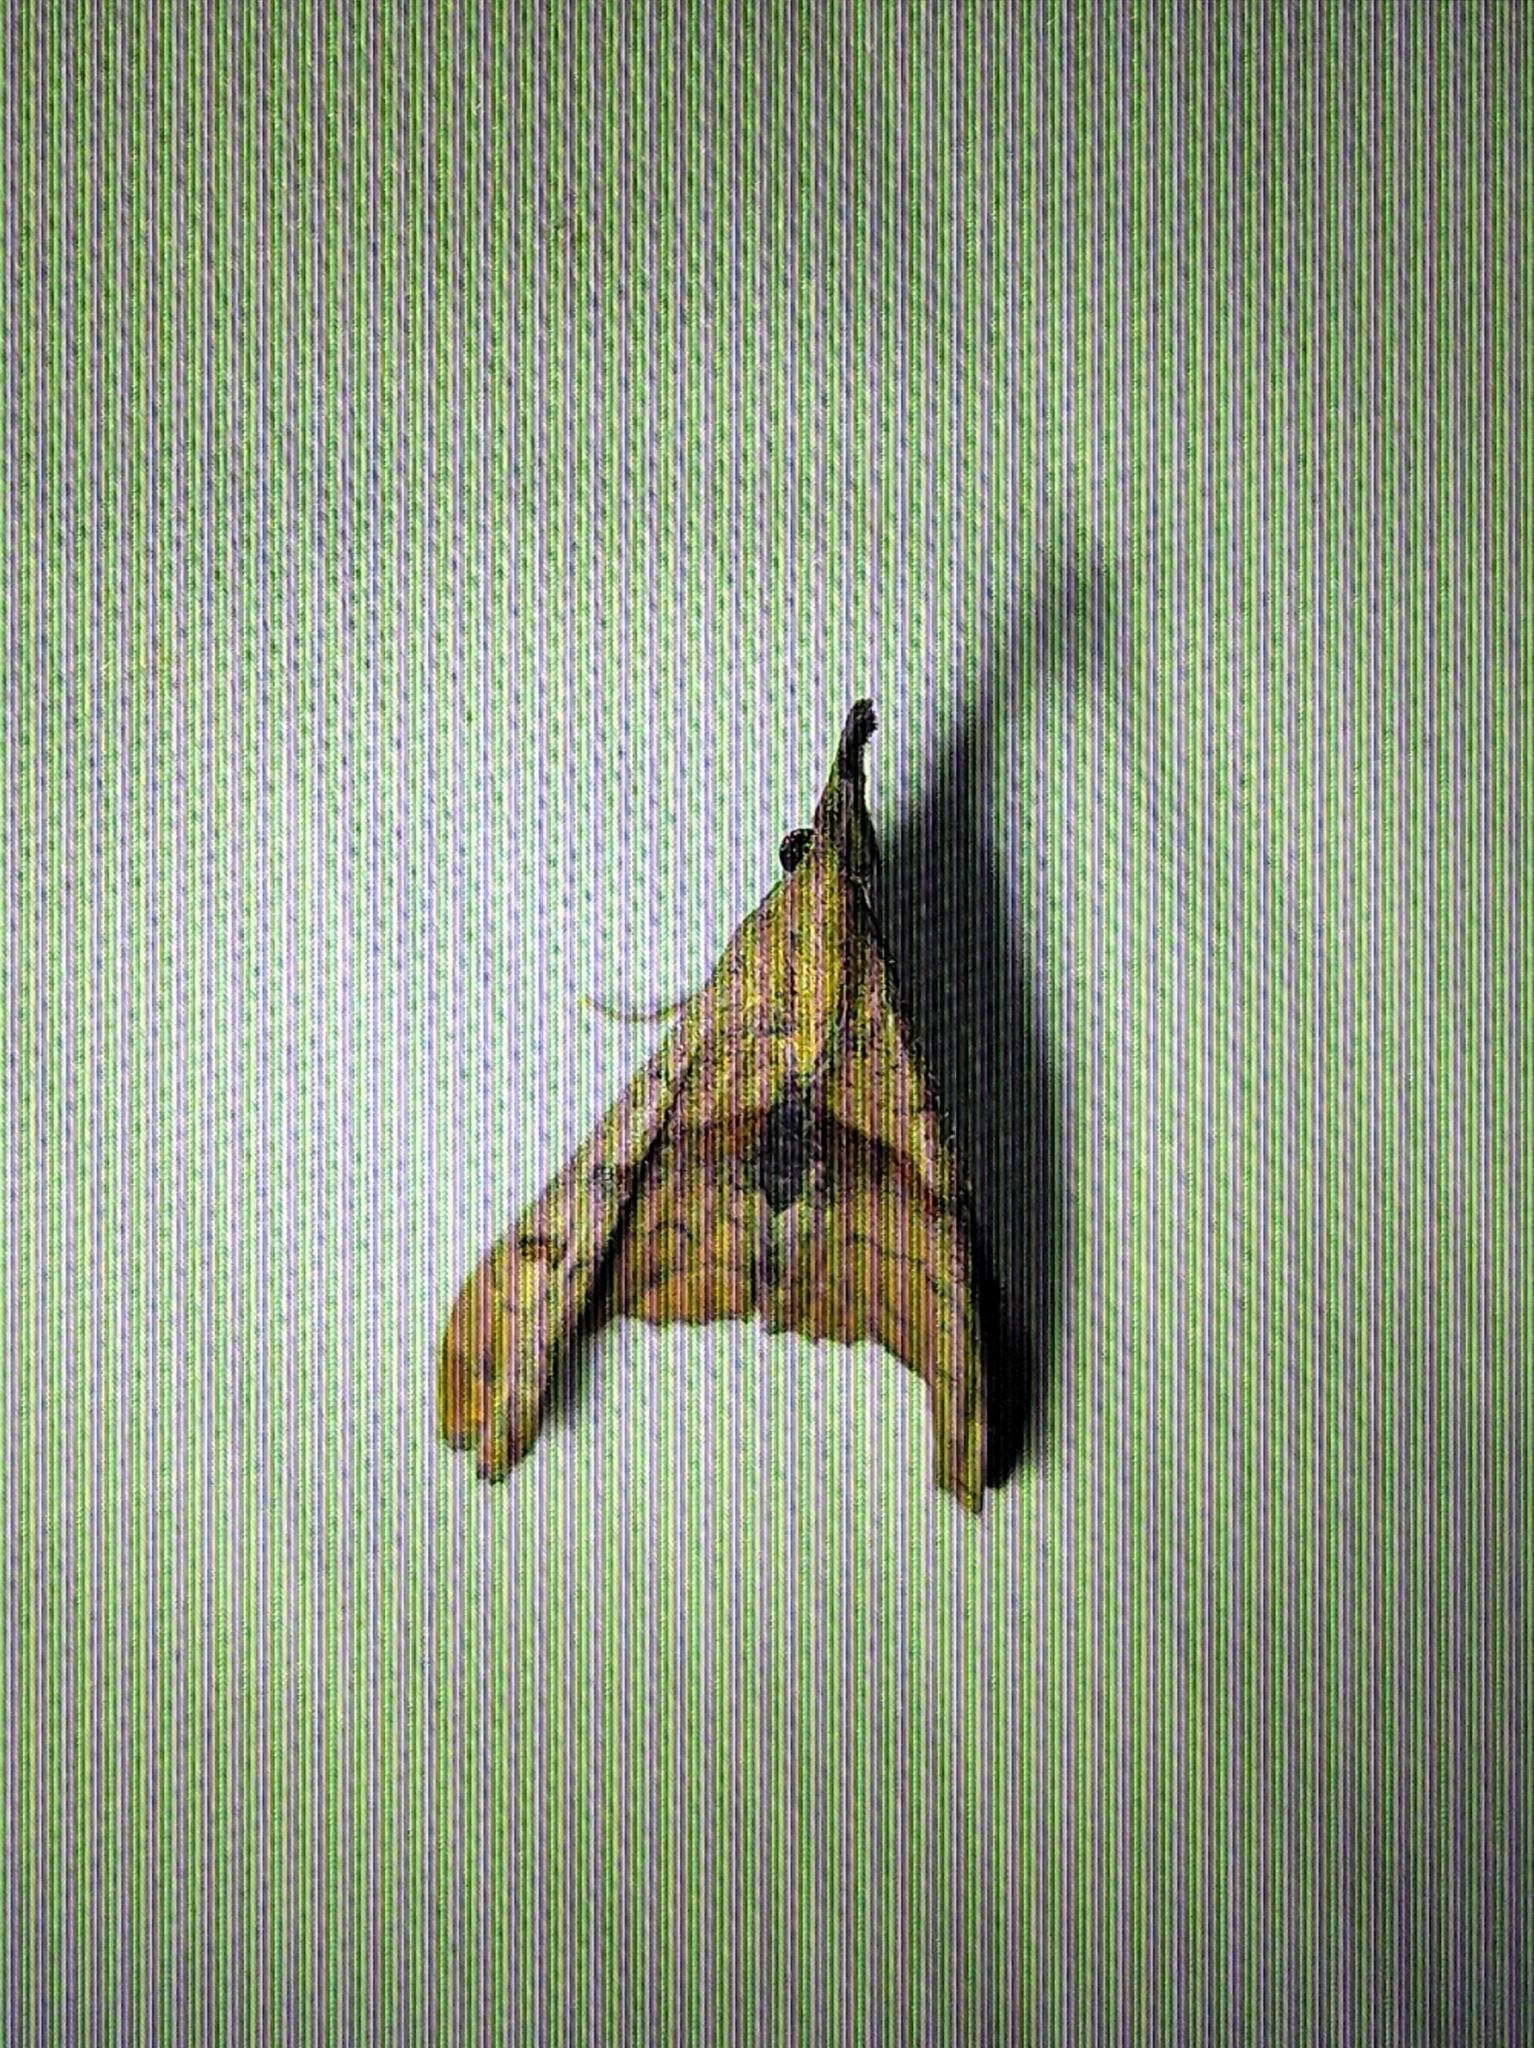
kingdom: Animalia
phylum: Arthropoda
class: Insecta
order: Lepidoptera
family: Erebidae
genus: Palthis
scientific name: Palthis angulalis
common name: Dark-spotted palthis moth
